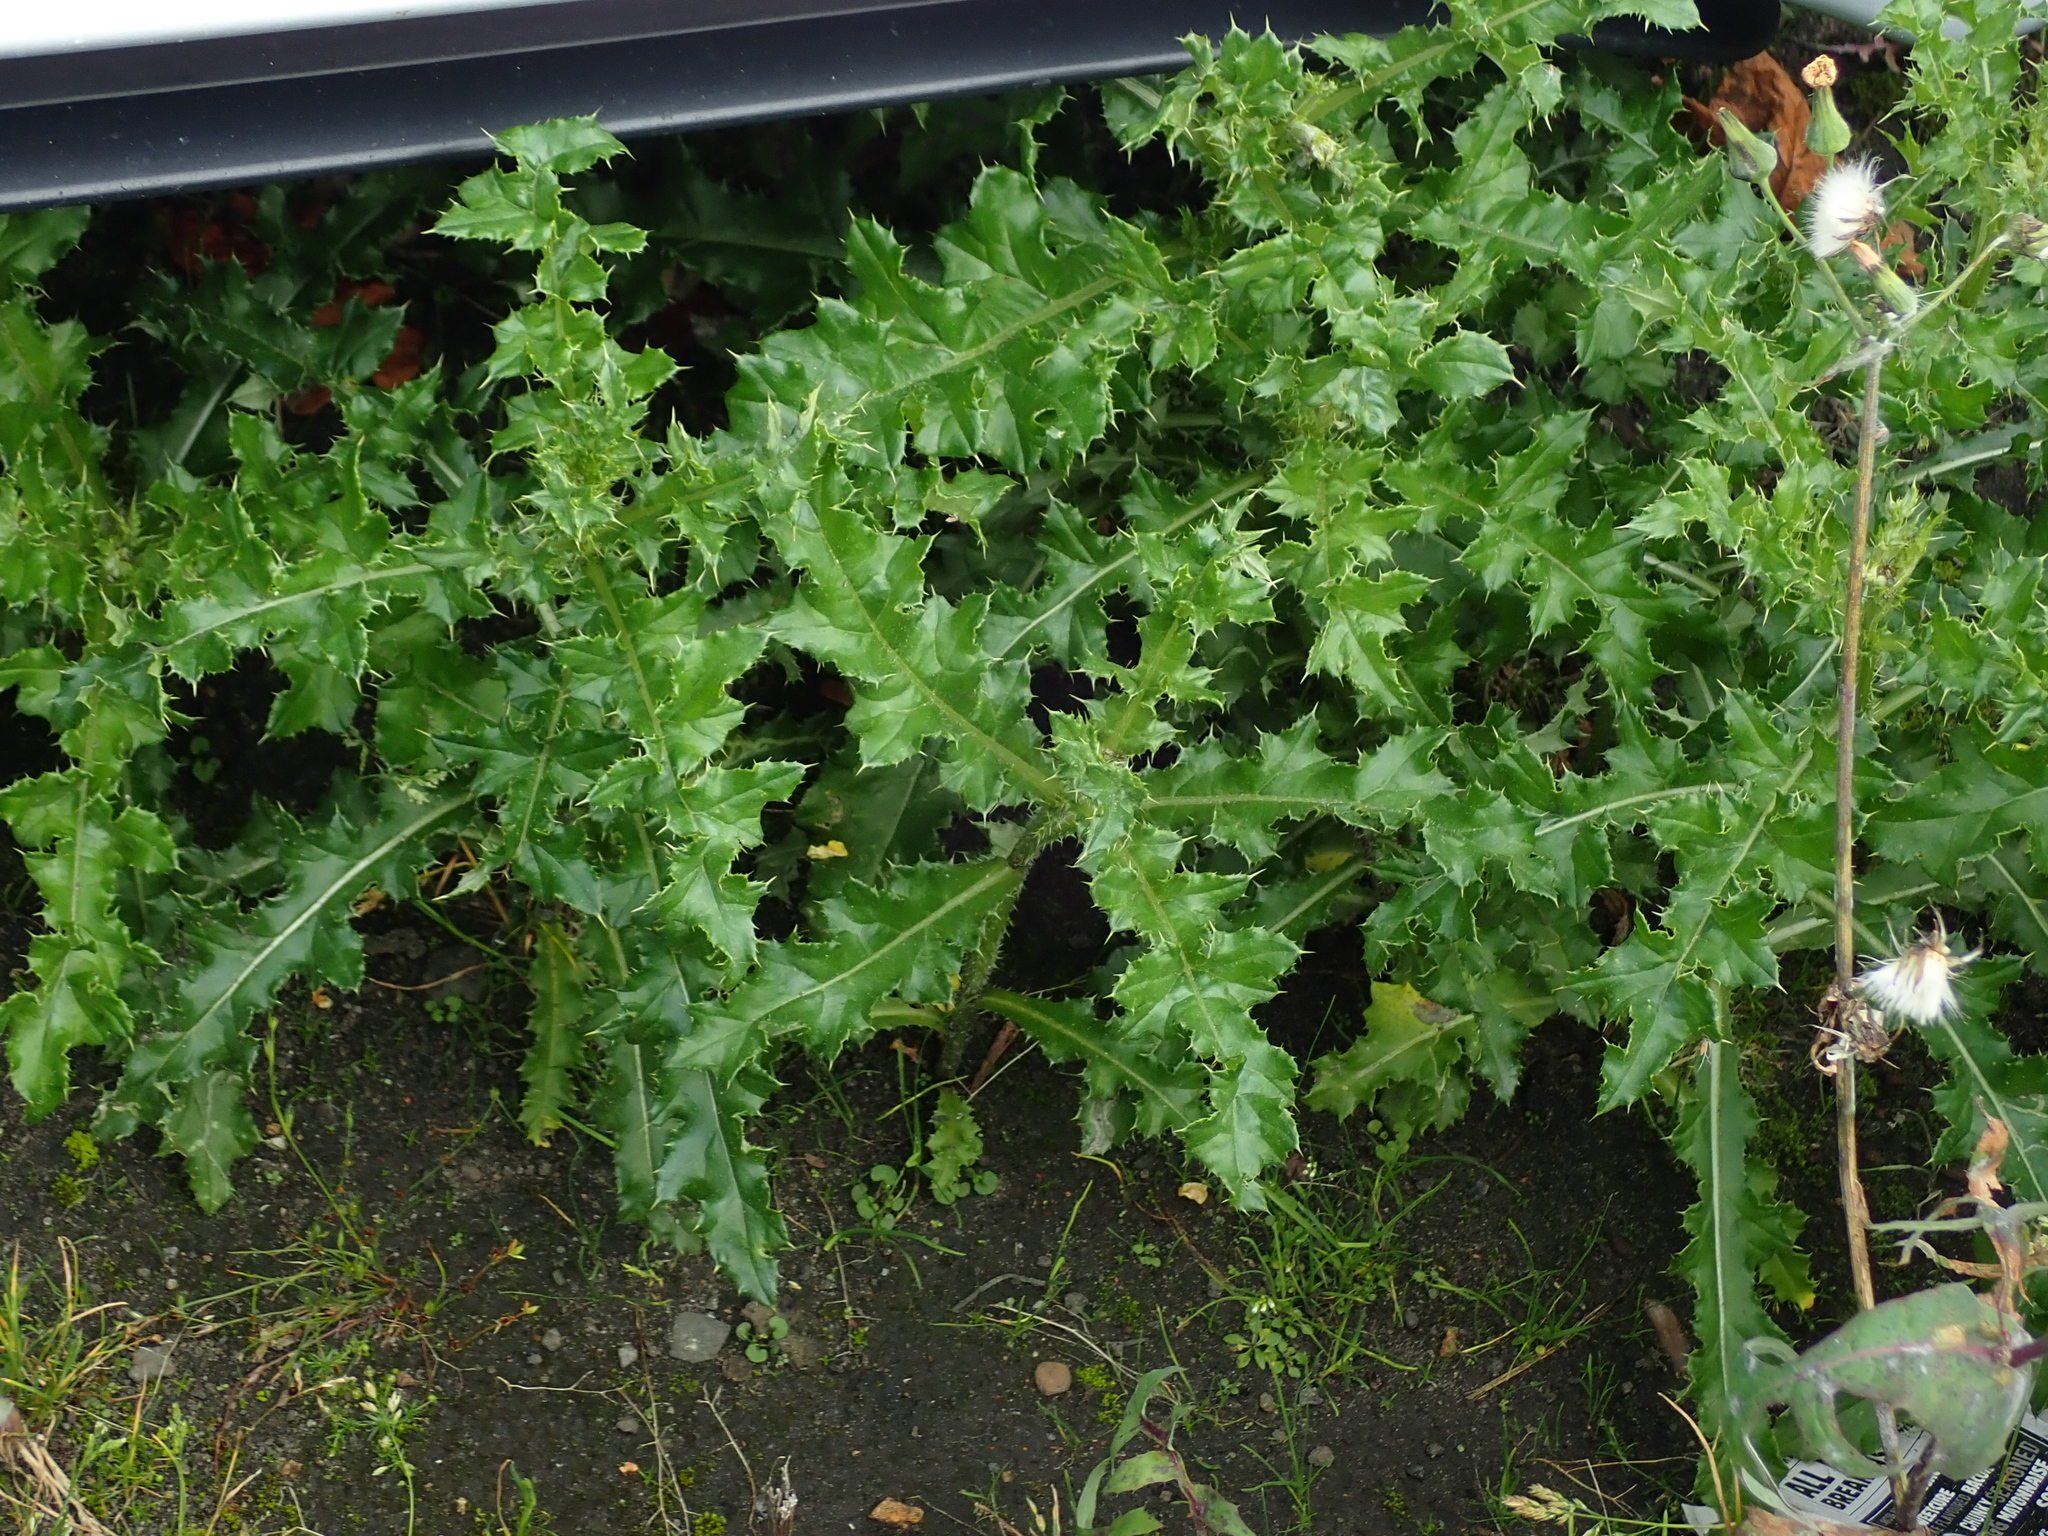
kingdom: Plantae
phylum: Tracheophyta
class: Magnoliopsida
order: Asterales
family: Asteraceae
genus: Cirsium
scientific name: Cirsium arvense
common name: Creeping thistle
